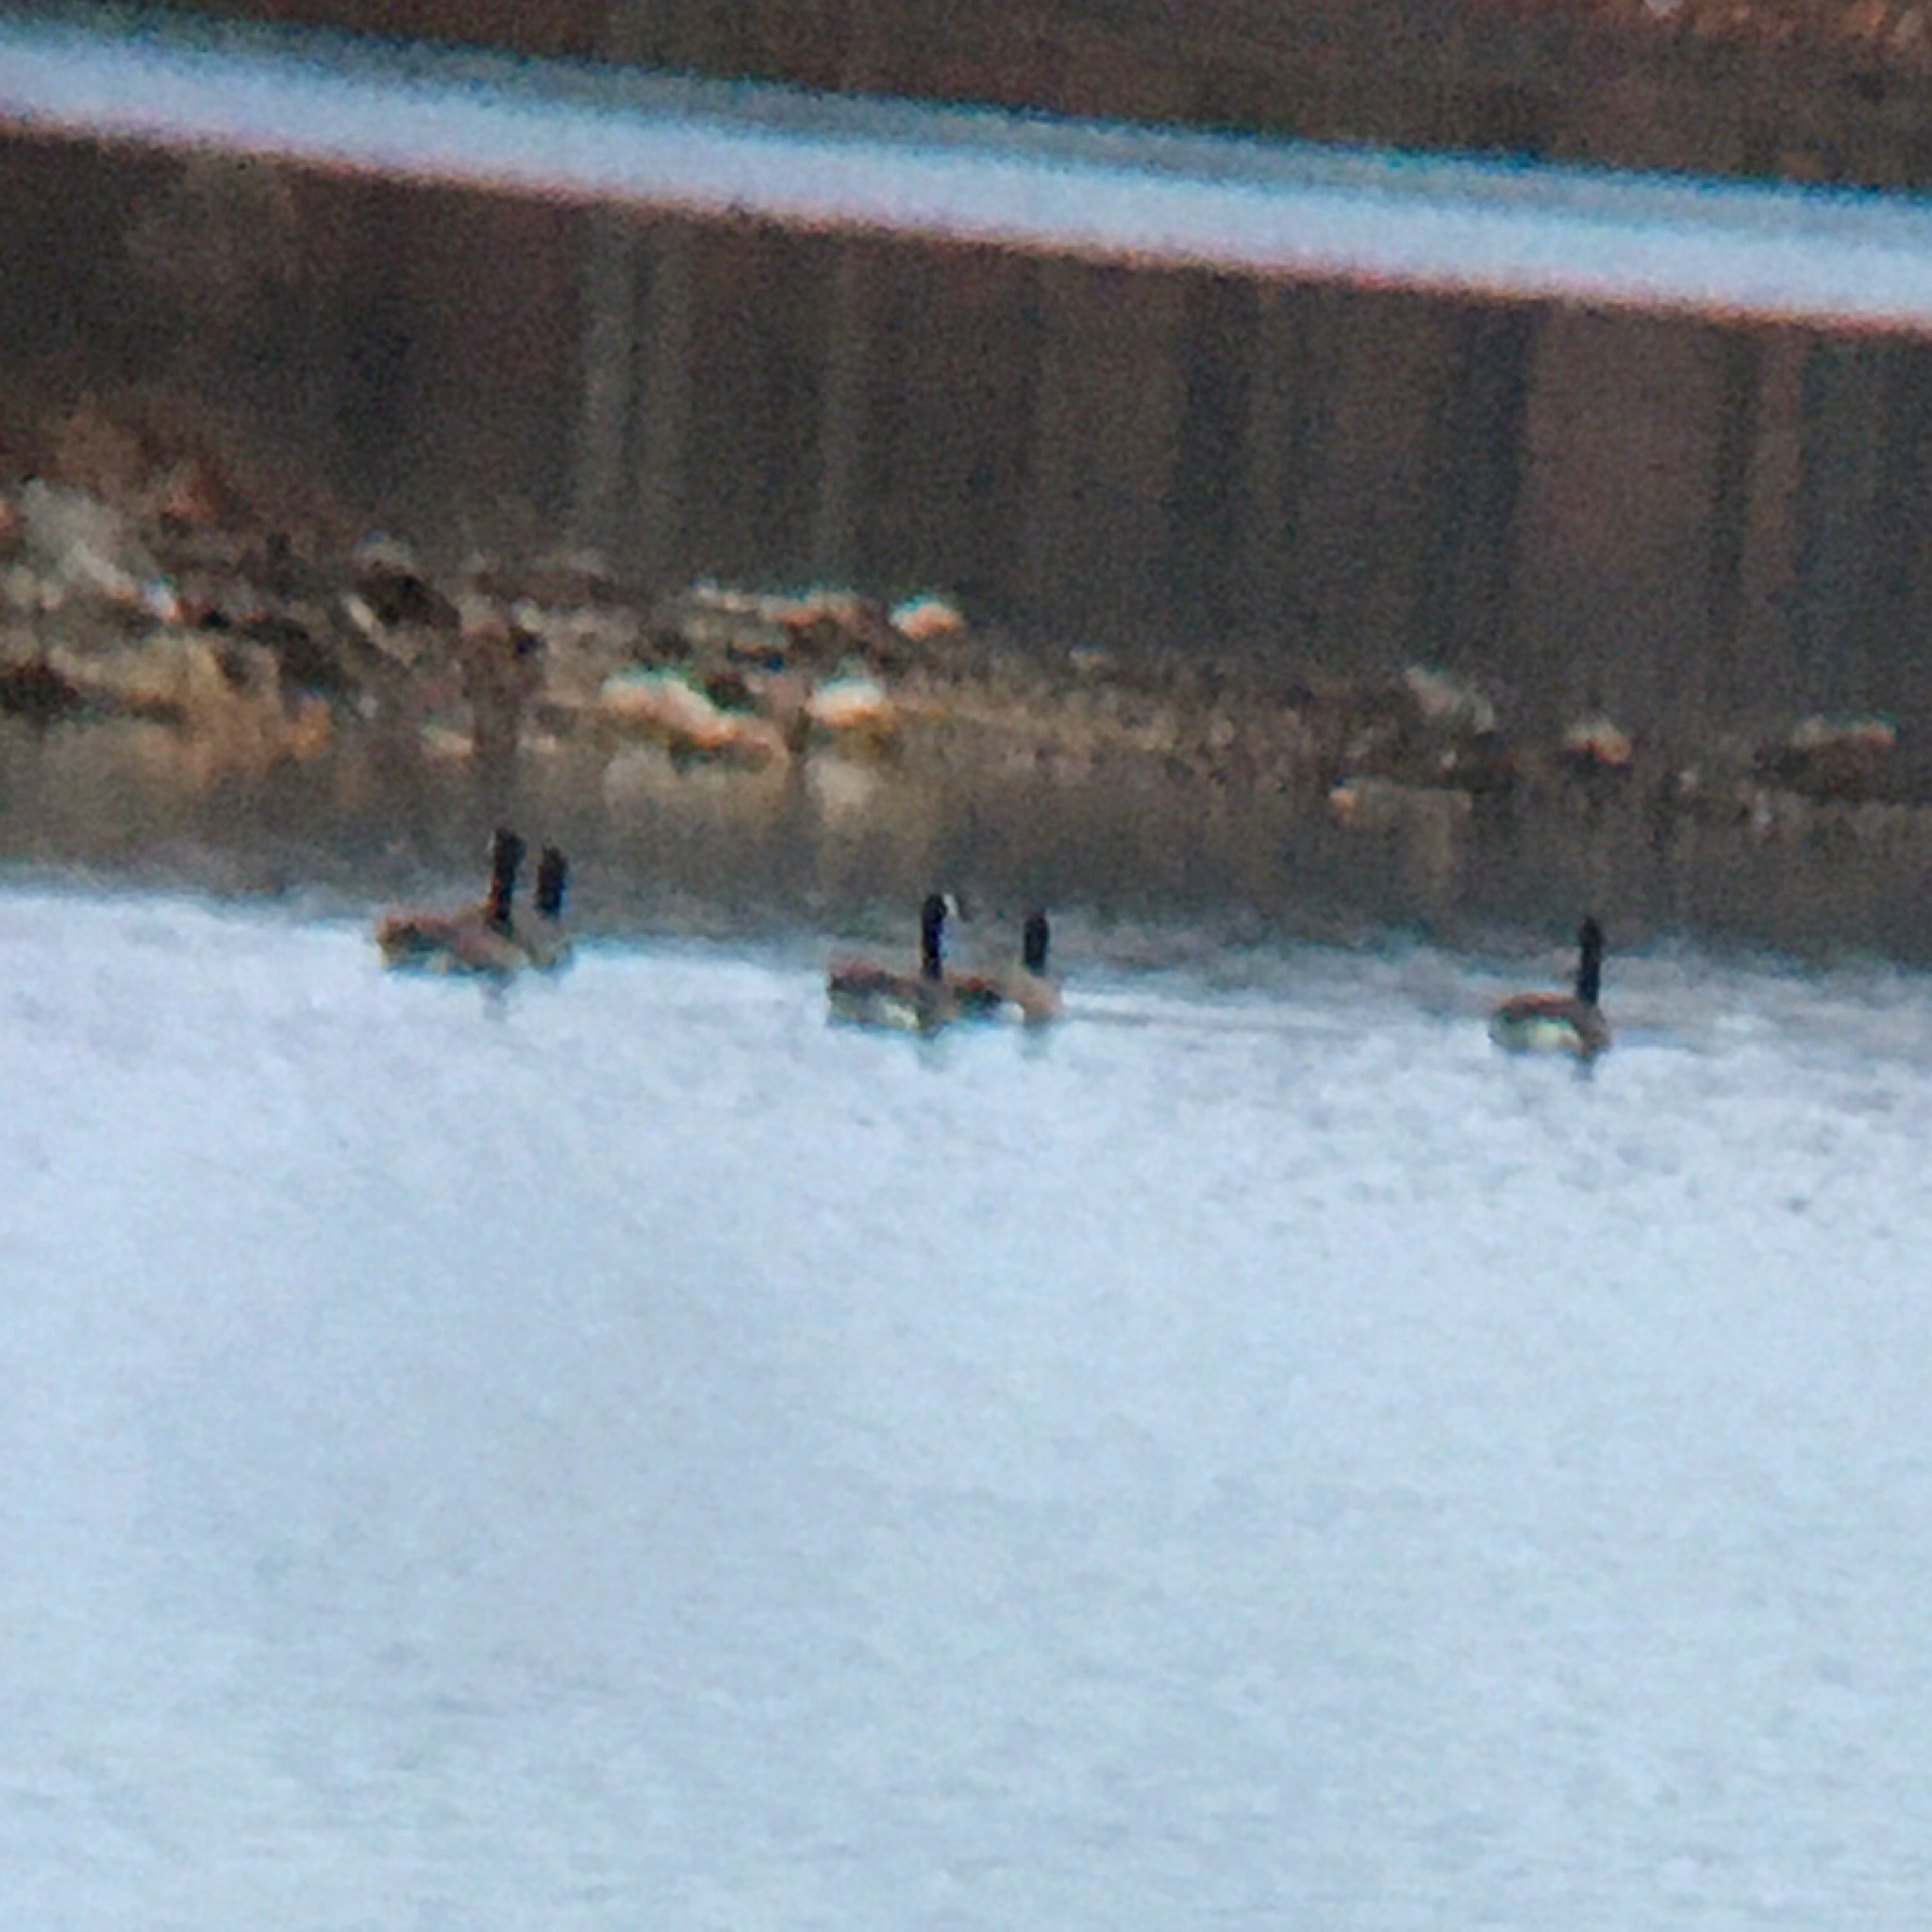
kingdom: Animalia
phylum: Chordata
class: Aves
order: Anseriformes
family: Anatidae
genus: Branta
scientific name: Branta canadensis
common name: Canada goose
